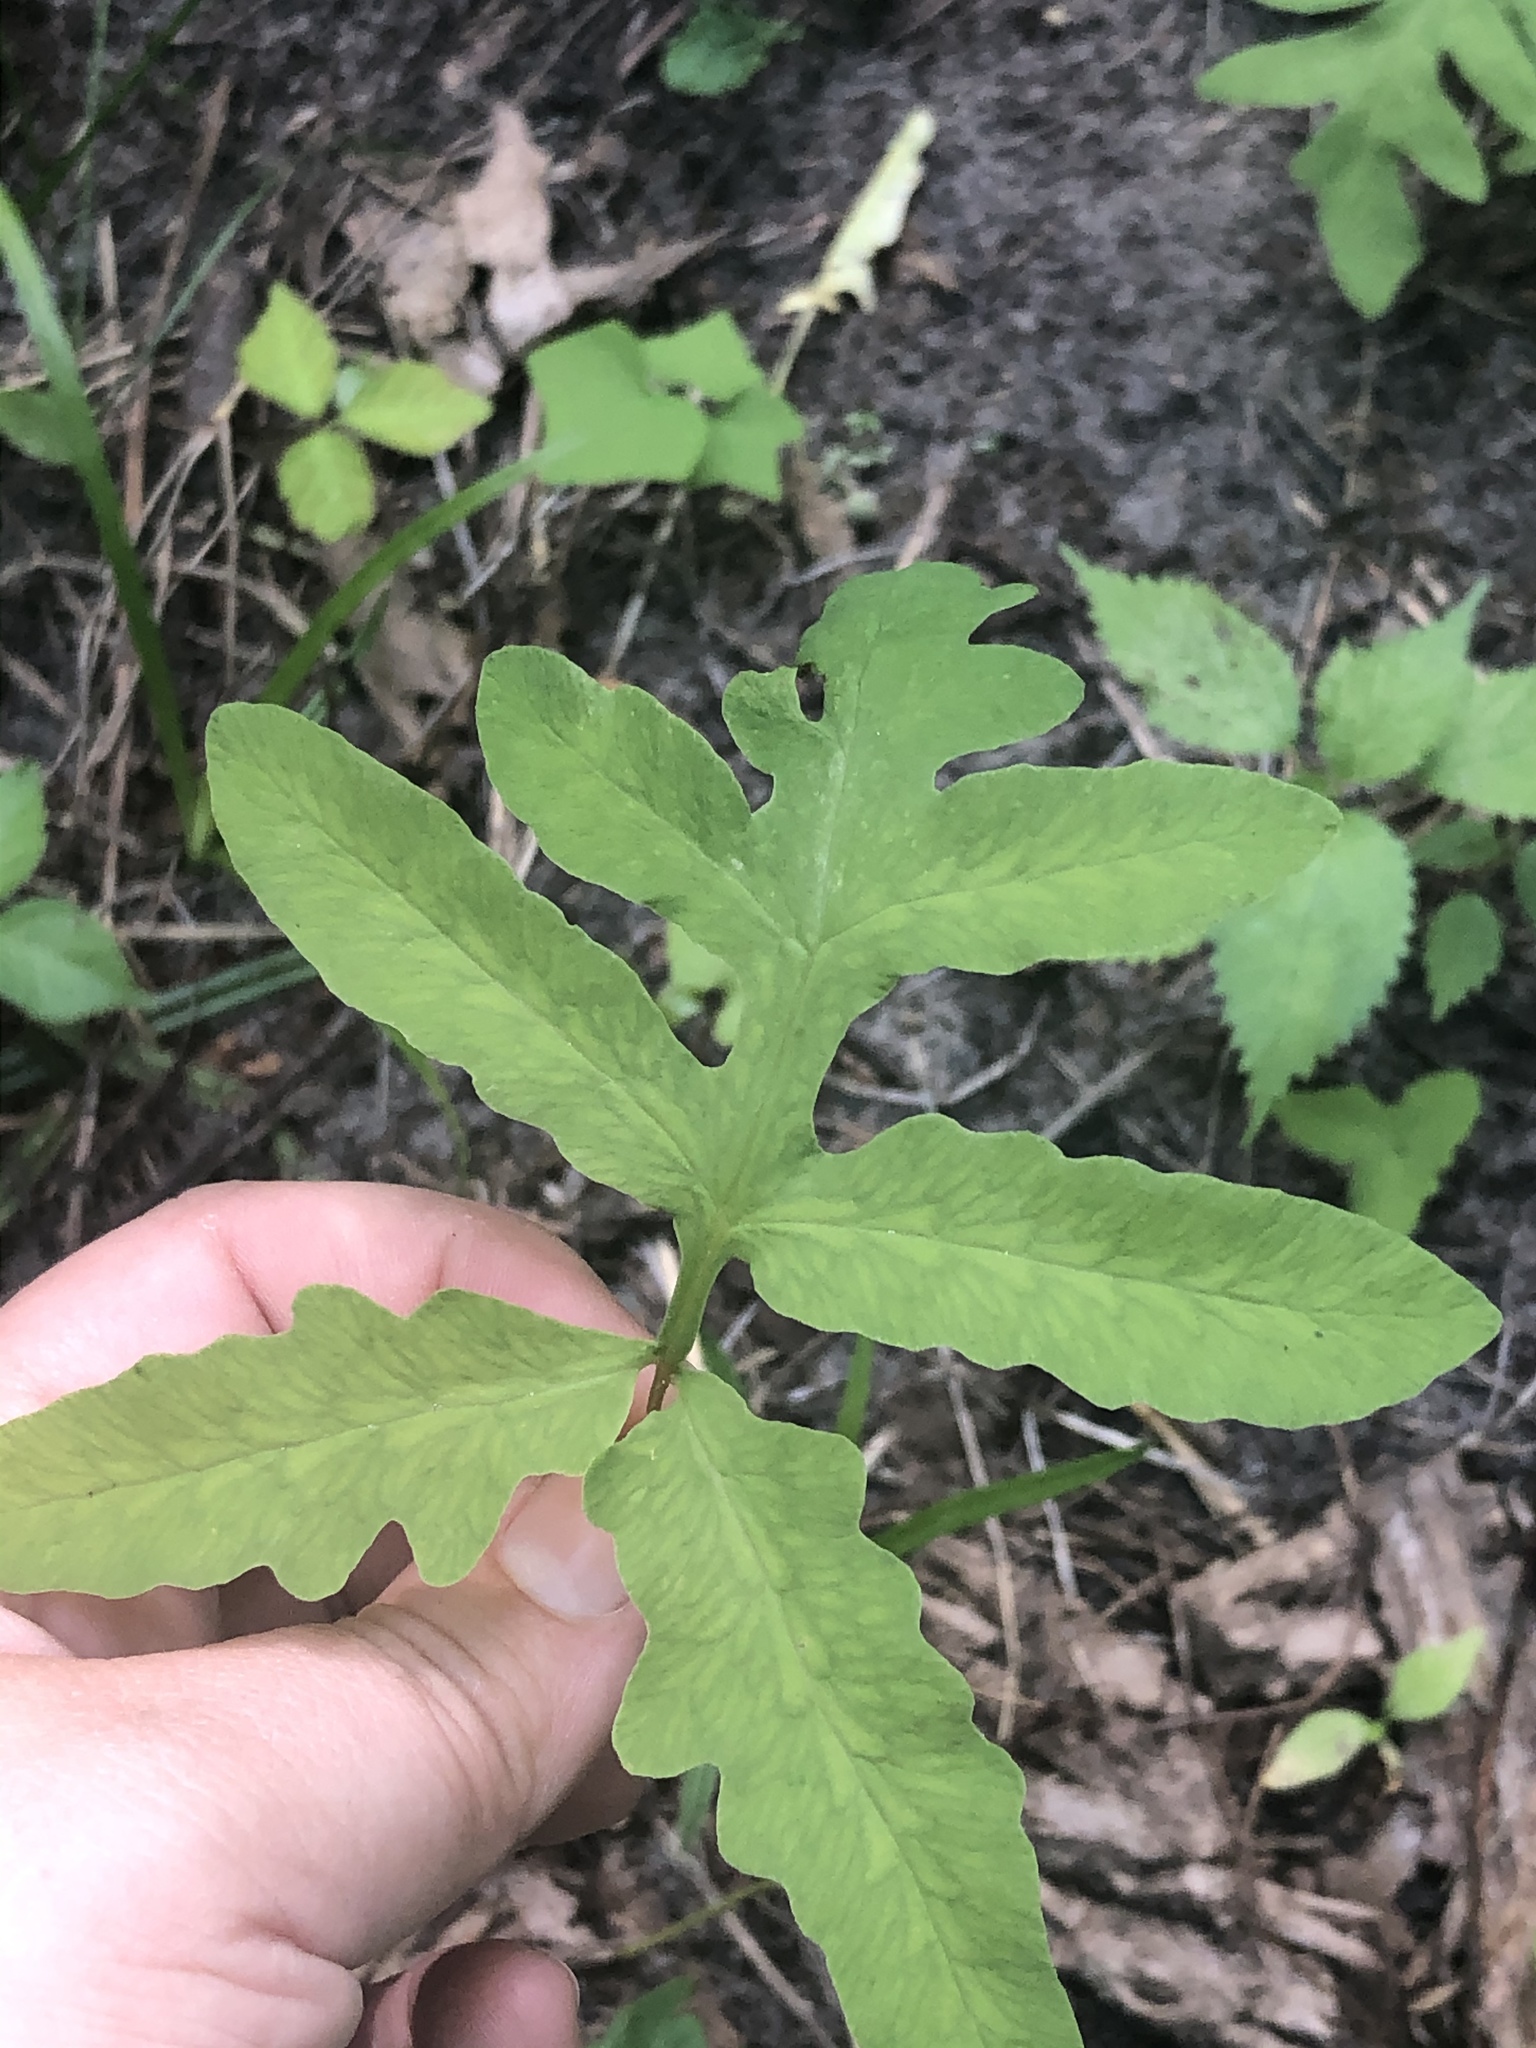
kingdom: Plantae
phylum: Tracheophyta
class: Polypodiopsida
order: Polypodiales
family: Onocleaceae
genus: Onoclea
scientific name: Onoclea sensibilis
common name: Sensitive fern
